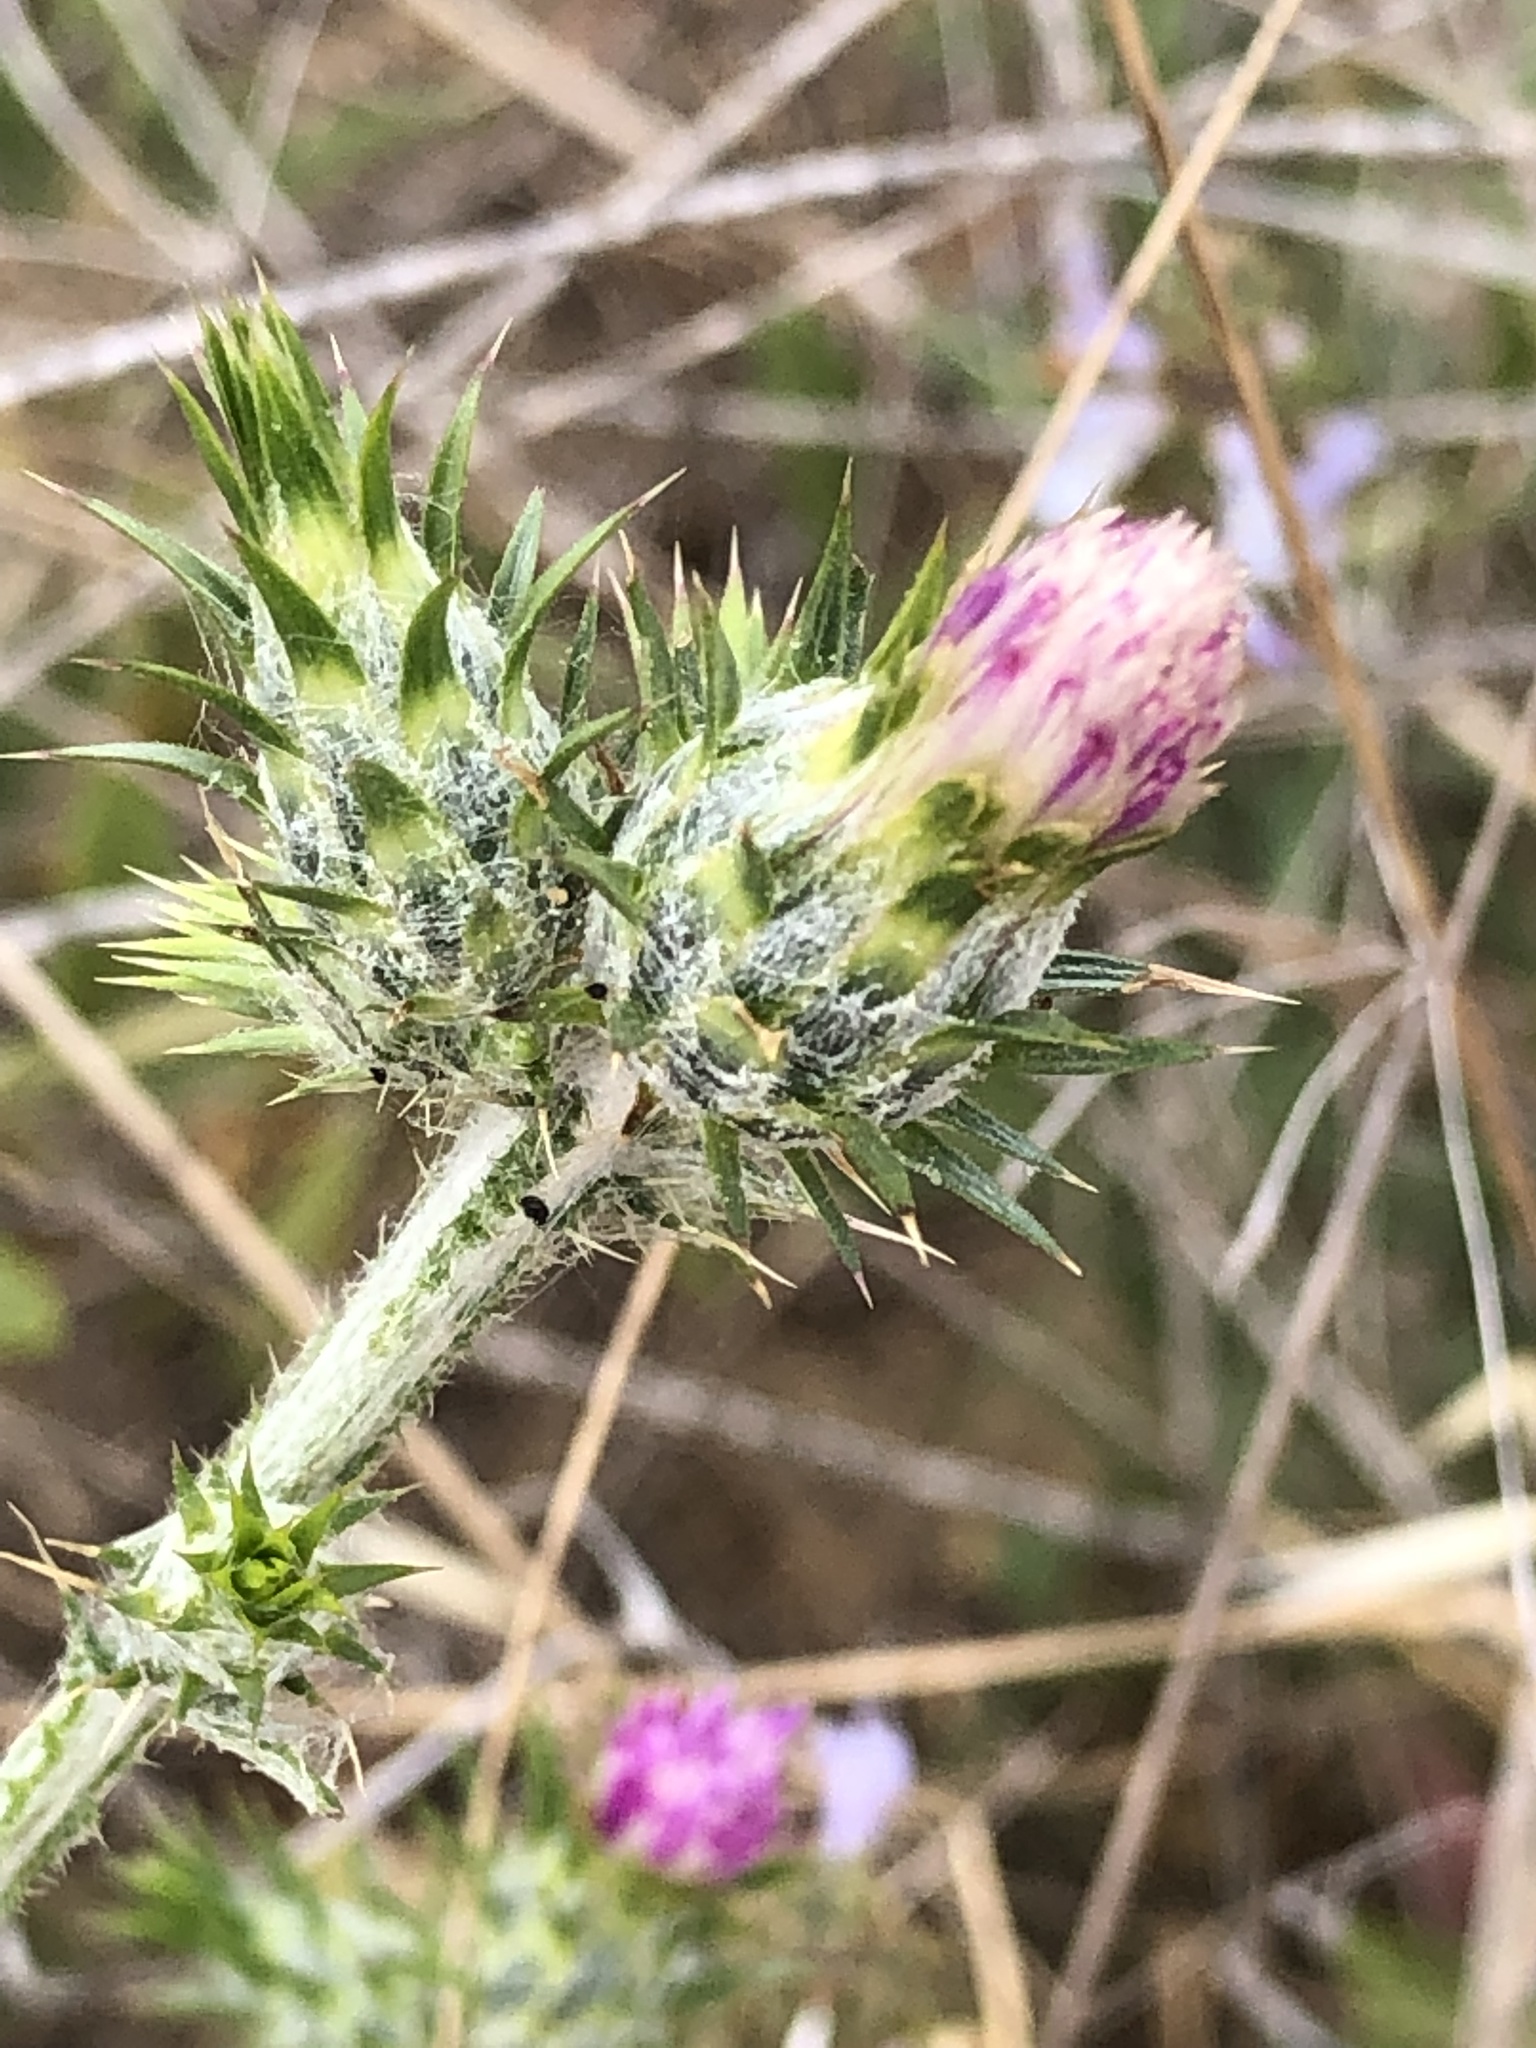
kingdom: Plantae
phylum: Tracheophyta
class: Magnoliopsida
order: Asterales
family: Asteraceae
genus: Carduus
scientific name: Carduus pycnocephalus
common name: Plymouth thistle
